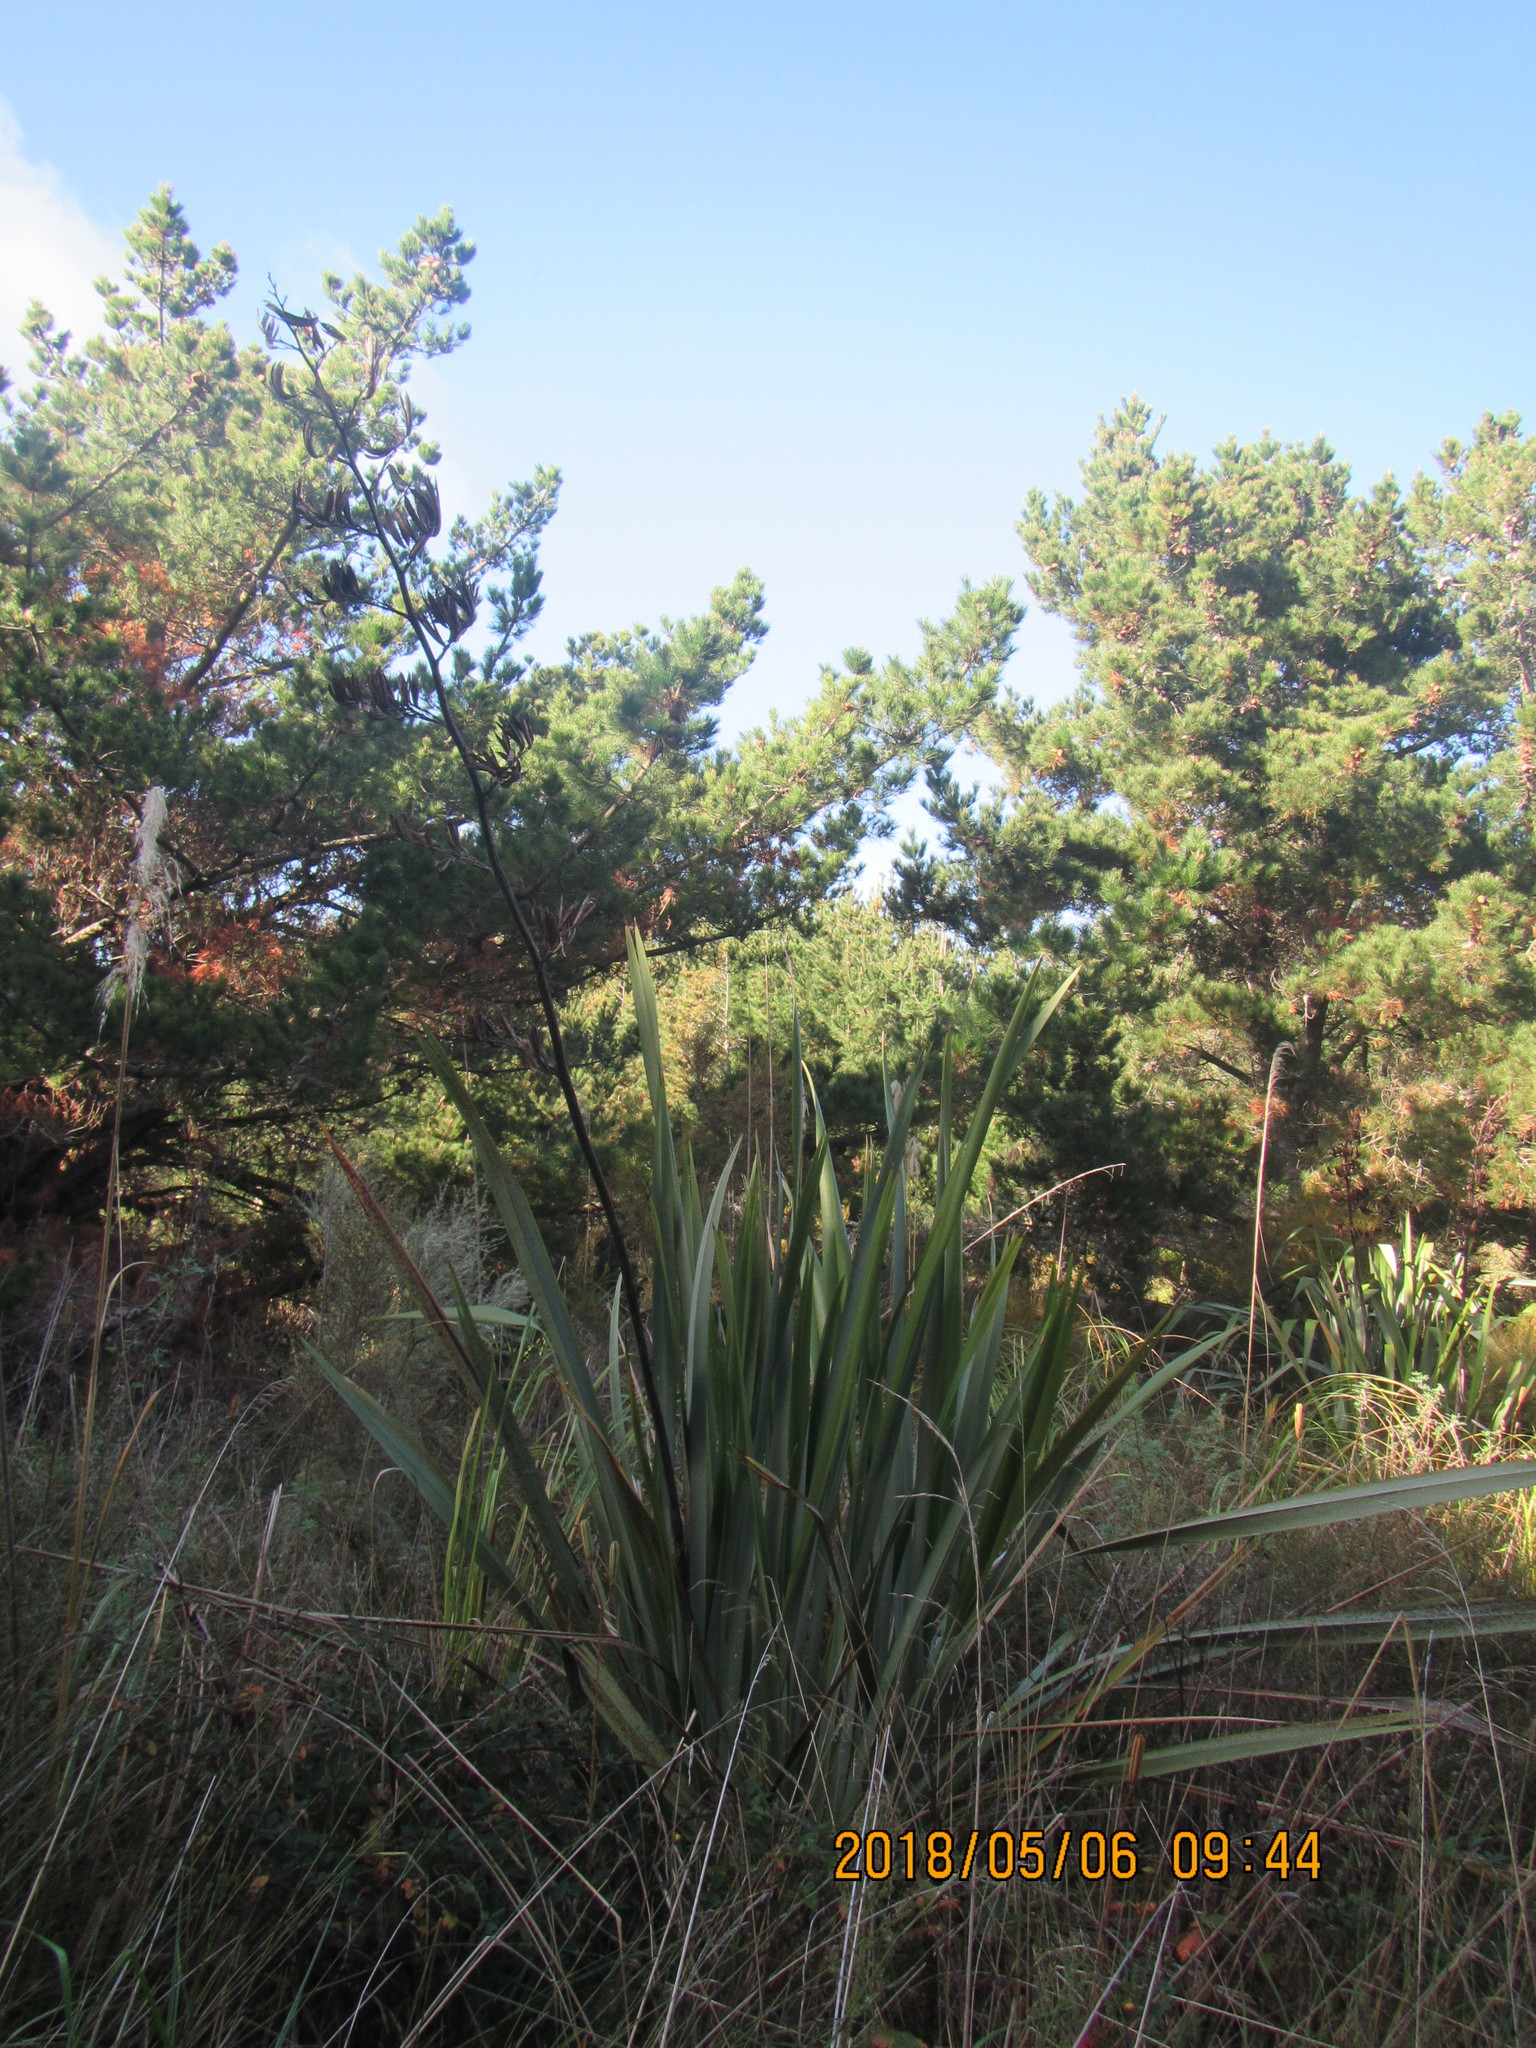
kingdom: Plantae
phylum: Tracheophyta
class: Liliopsida
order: Asparagales
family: Asphodelaceae
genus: Phormium
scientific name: Phormium tenax
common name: New zealand flax
